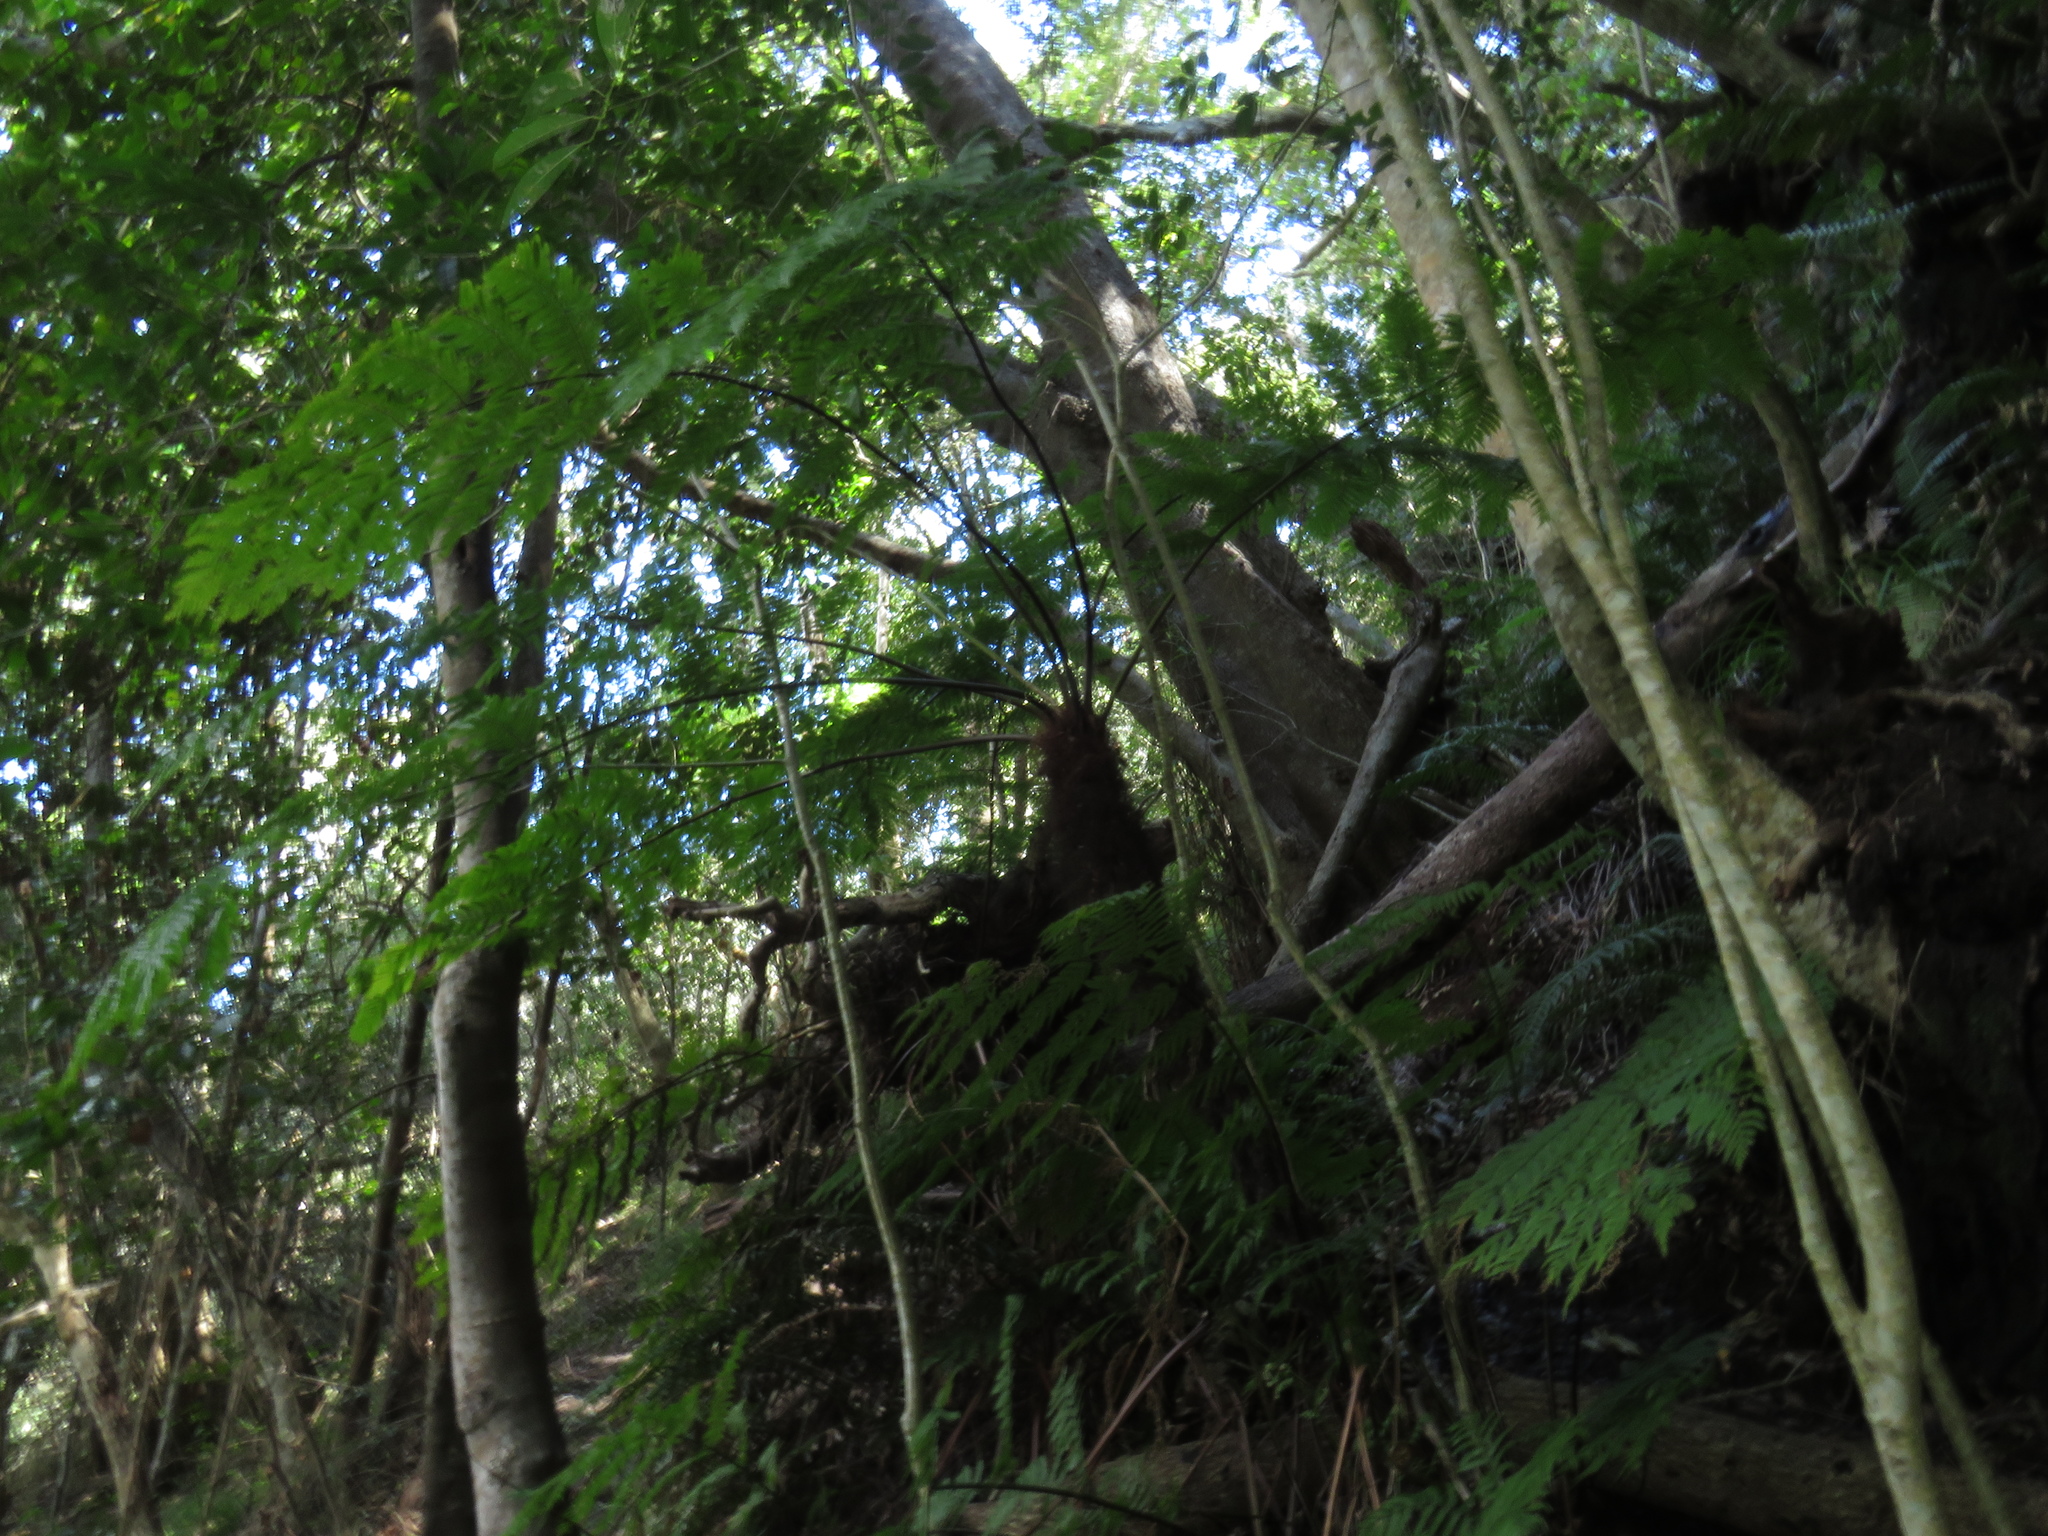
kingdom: Plantae
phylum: Tracheophyta
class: Polypodiopsida
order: Cyatheales
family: Cyatheaceae
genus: Gymnosphaera
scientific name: Gymnosphaera capensis
